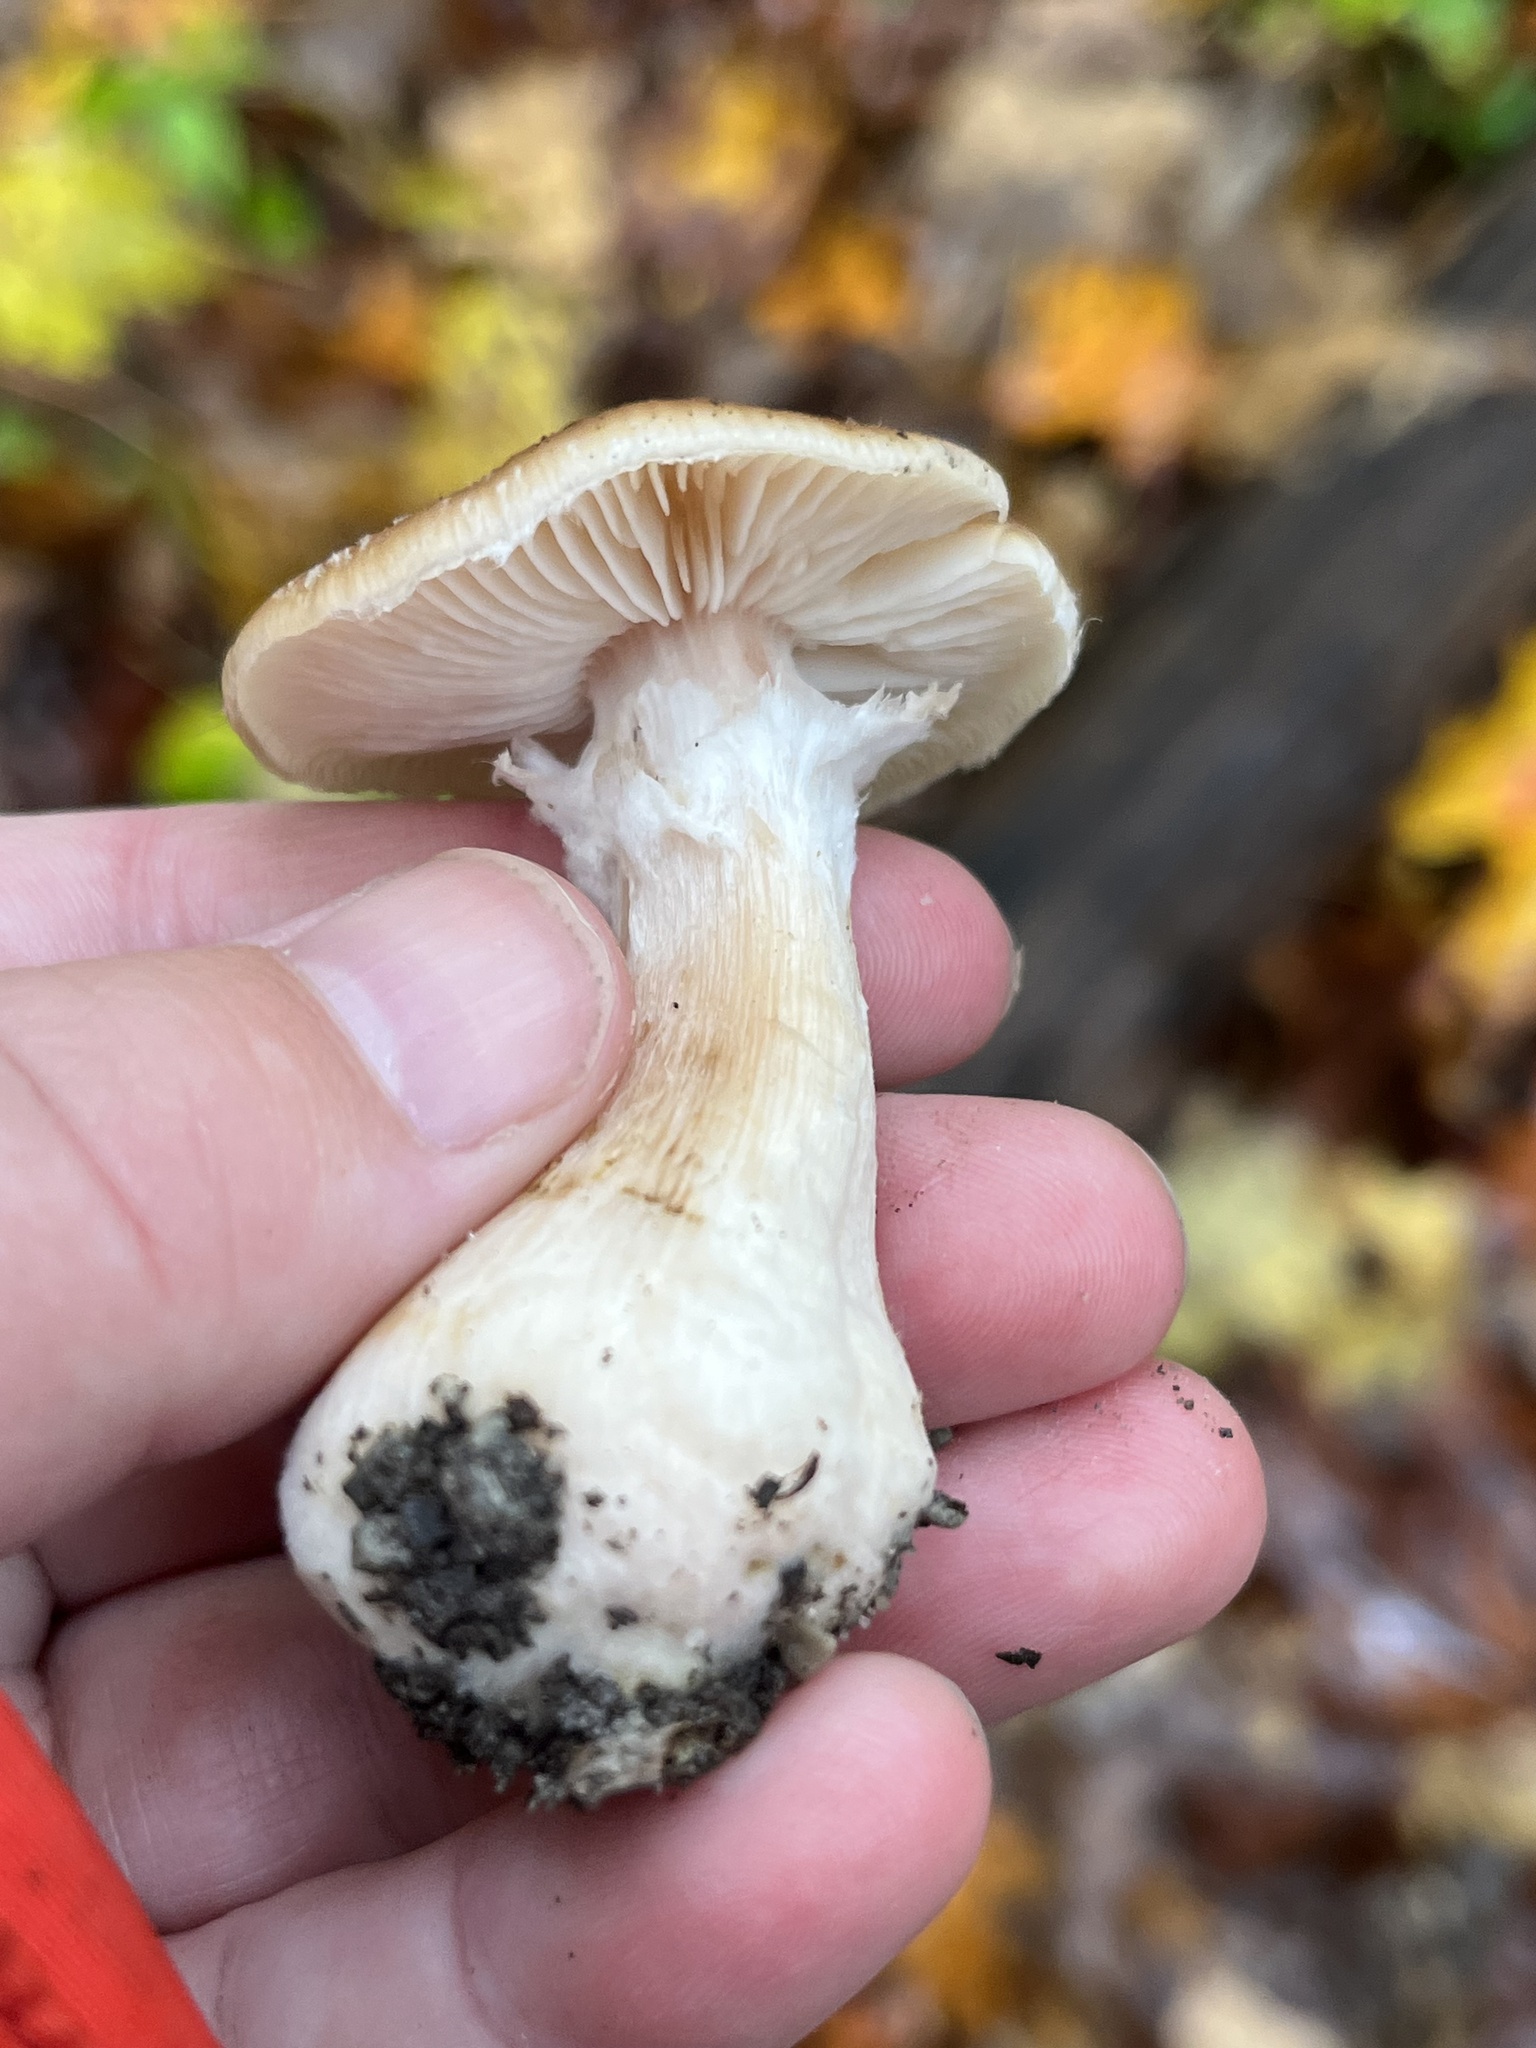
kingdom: Fungi
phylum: Basidiomycota
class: Agaricomycetes
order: Agaricales
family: Physalacriaceae
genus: Armillaria
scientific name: Armillaria gallica
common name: Bulbous honey fungus
